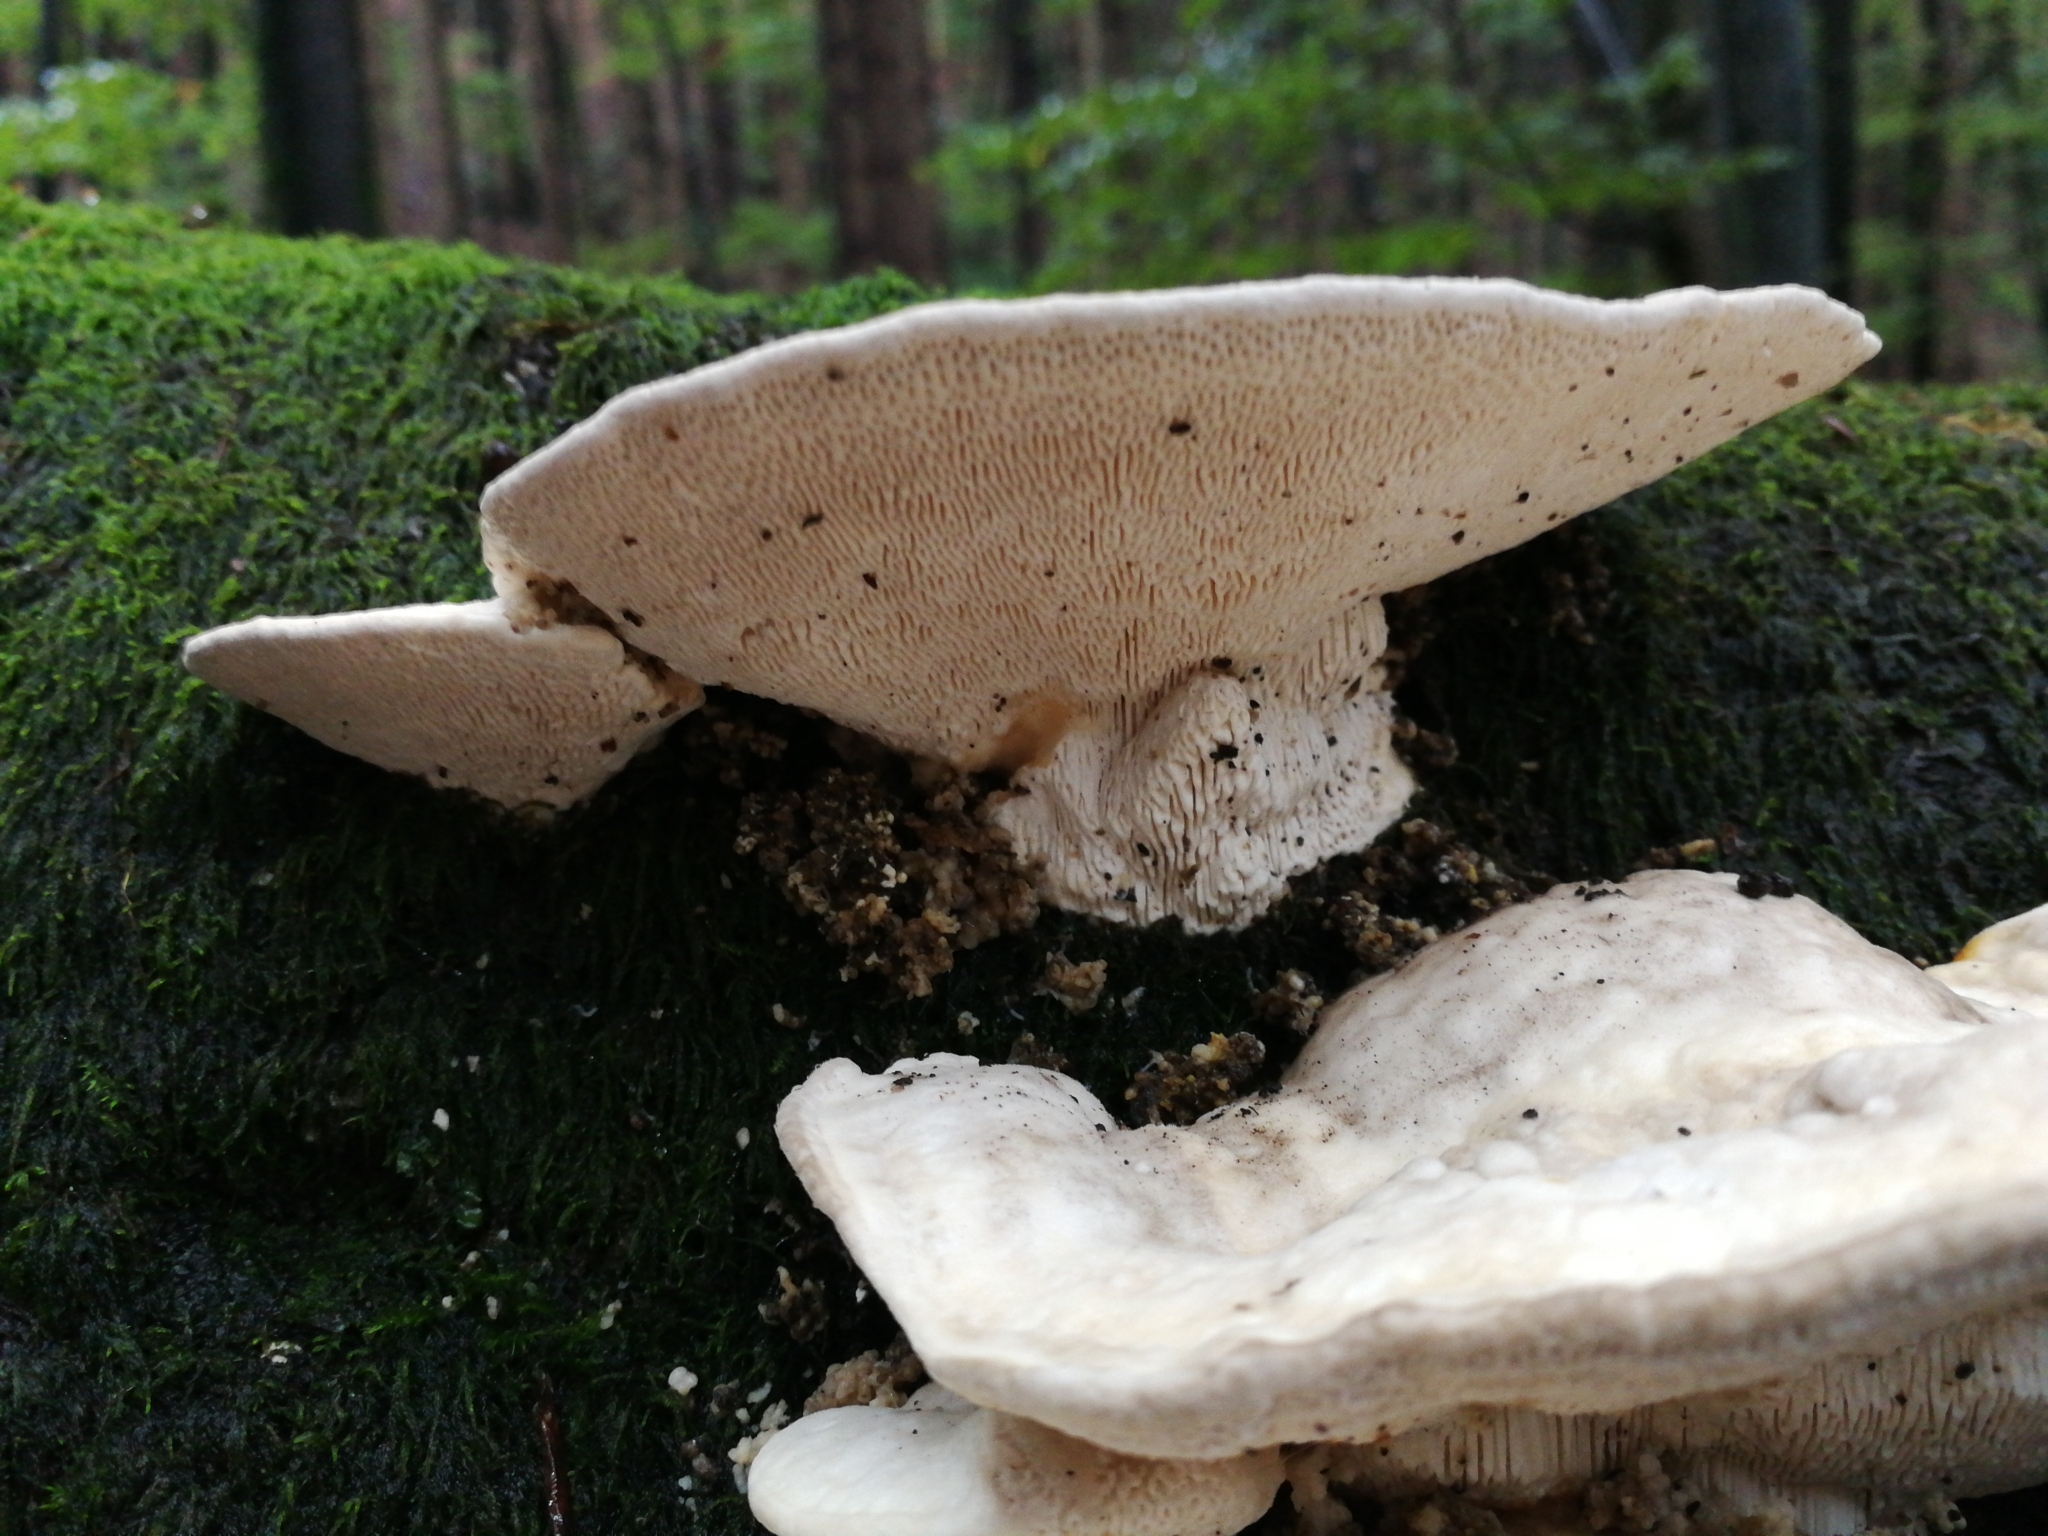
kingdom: Fungi
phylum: Basidiomycota
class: Agaricomycetes
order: Polyporales
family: Polyporaceae
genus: Trametes
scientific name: Trametes gibbosa
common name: Lumpy bracket
